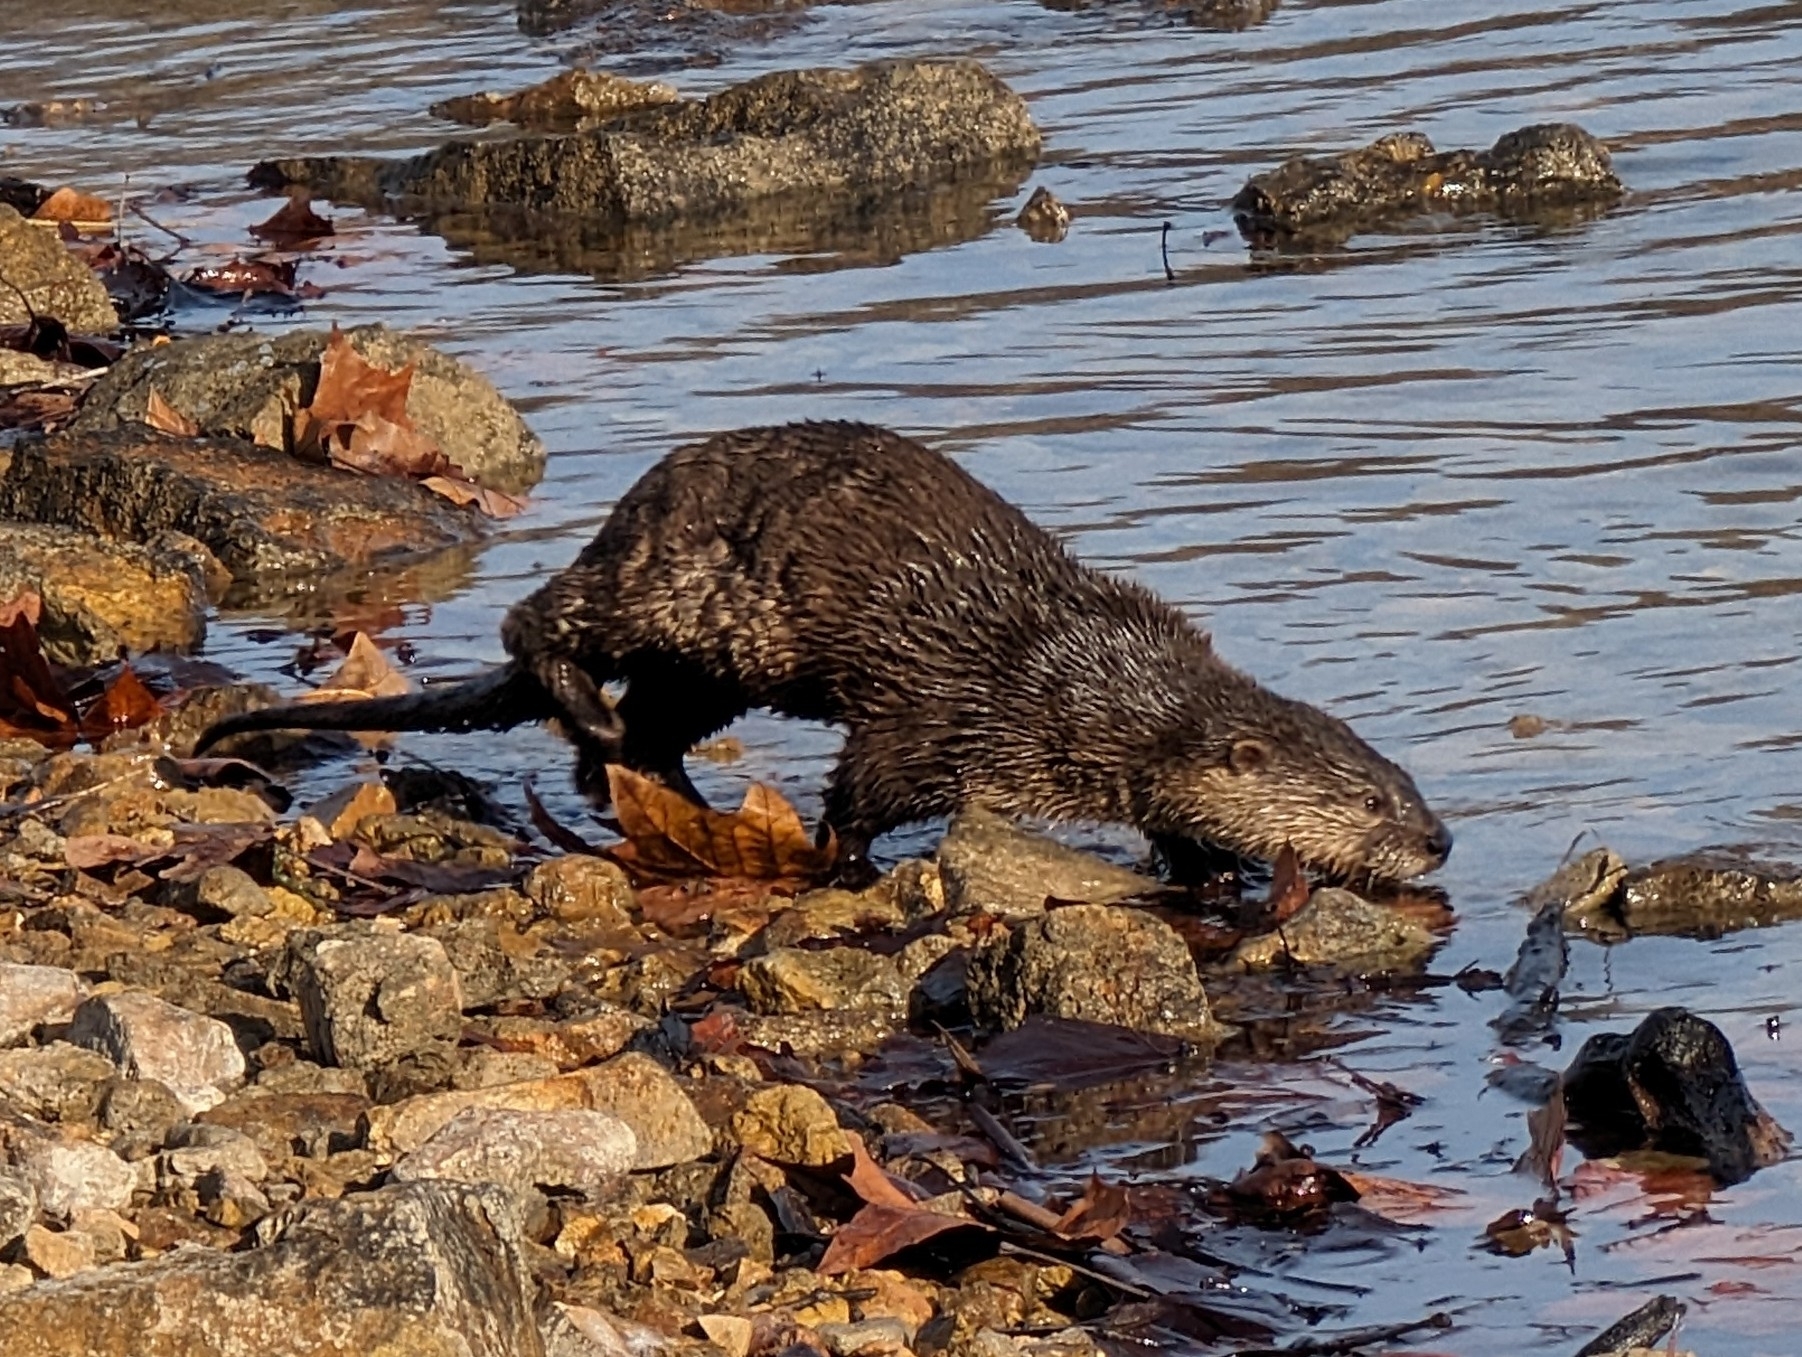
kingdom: Animalia
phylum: Chordata
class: Mammalia
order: Carnivora
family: Mustelidae
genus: Lontra
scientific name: Lontra canadensis
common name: North american river otter
